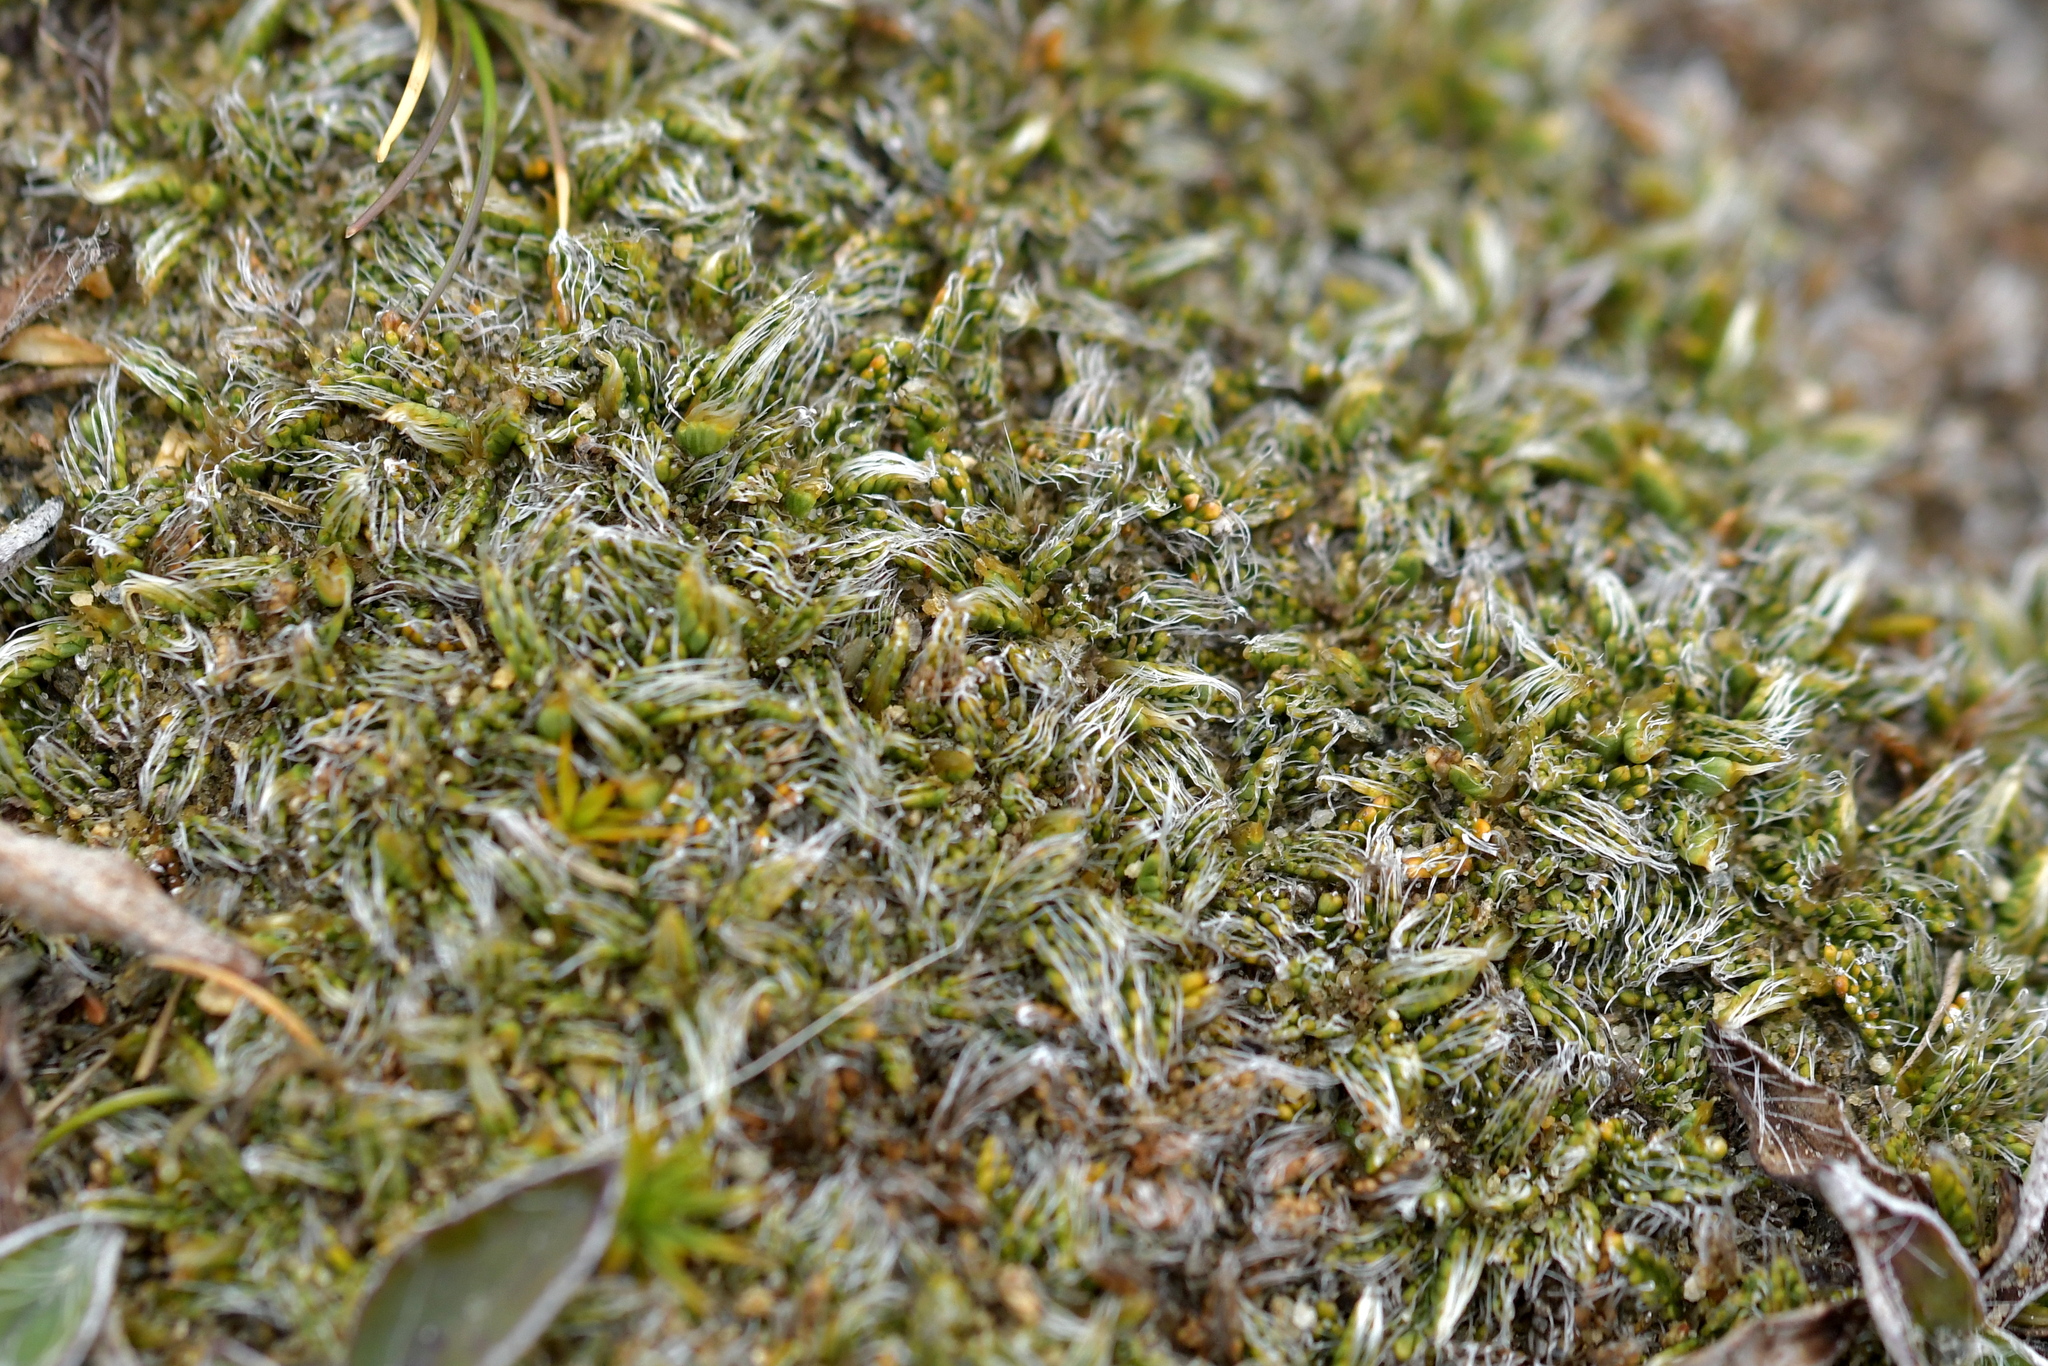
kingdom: Plantae
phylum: Tracheophyta
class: Magnoliopsida
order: Apiales
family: Apiaceae
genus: Anisotome
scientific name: Anisotome imbricata
